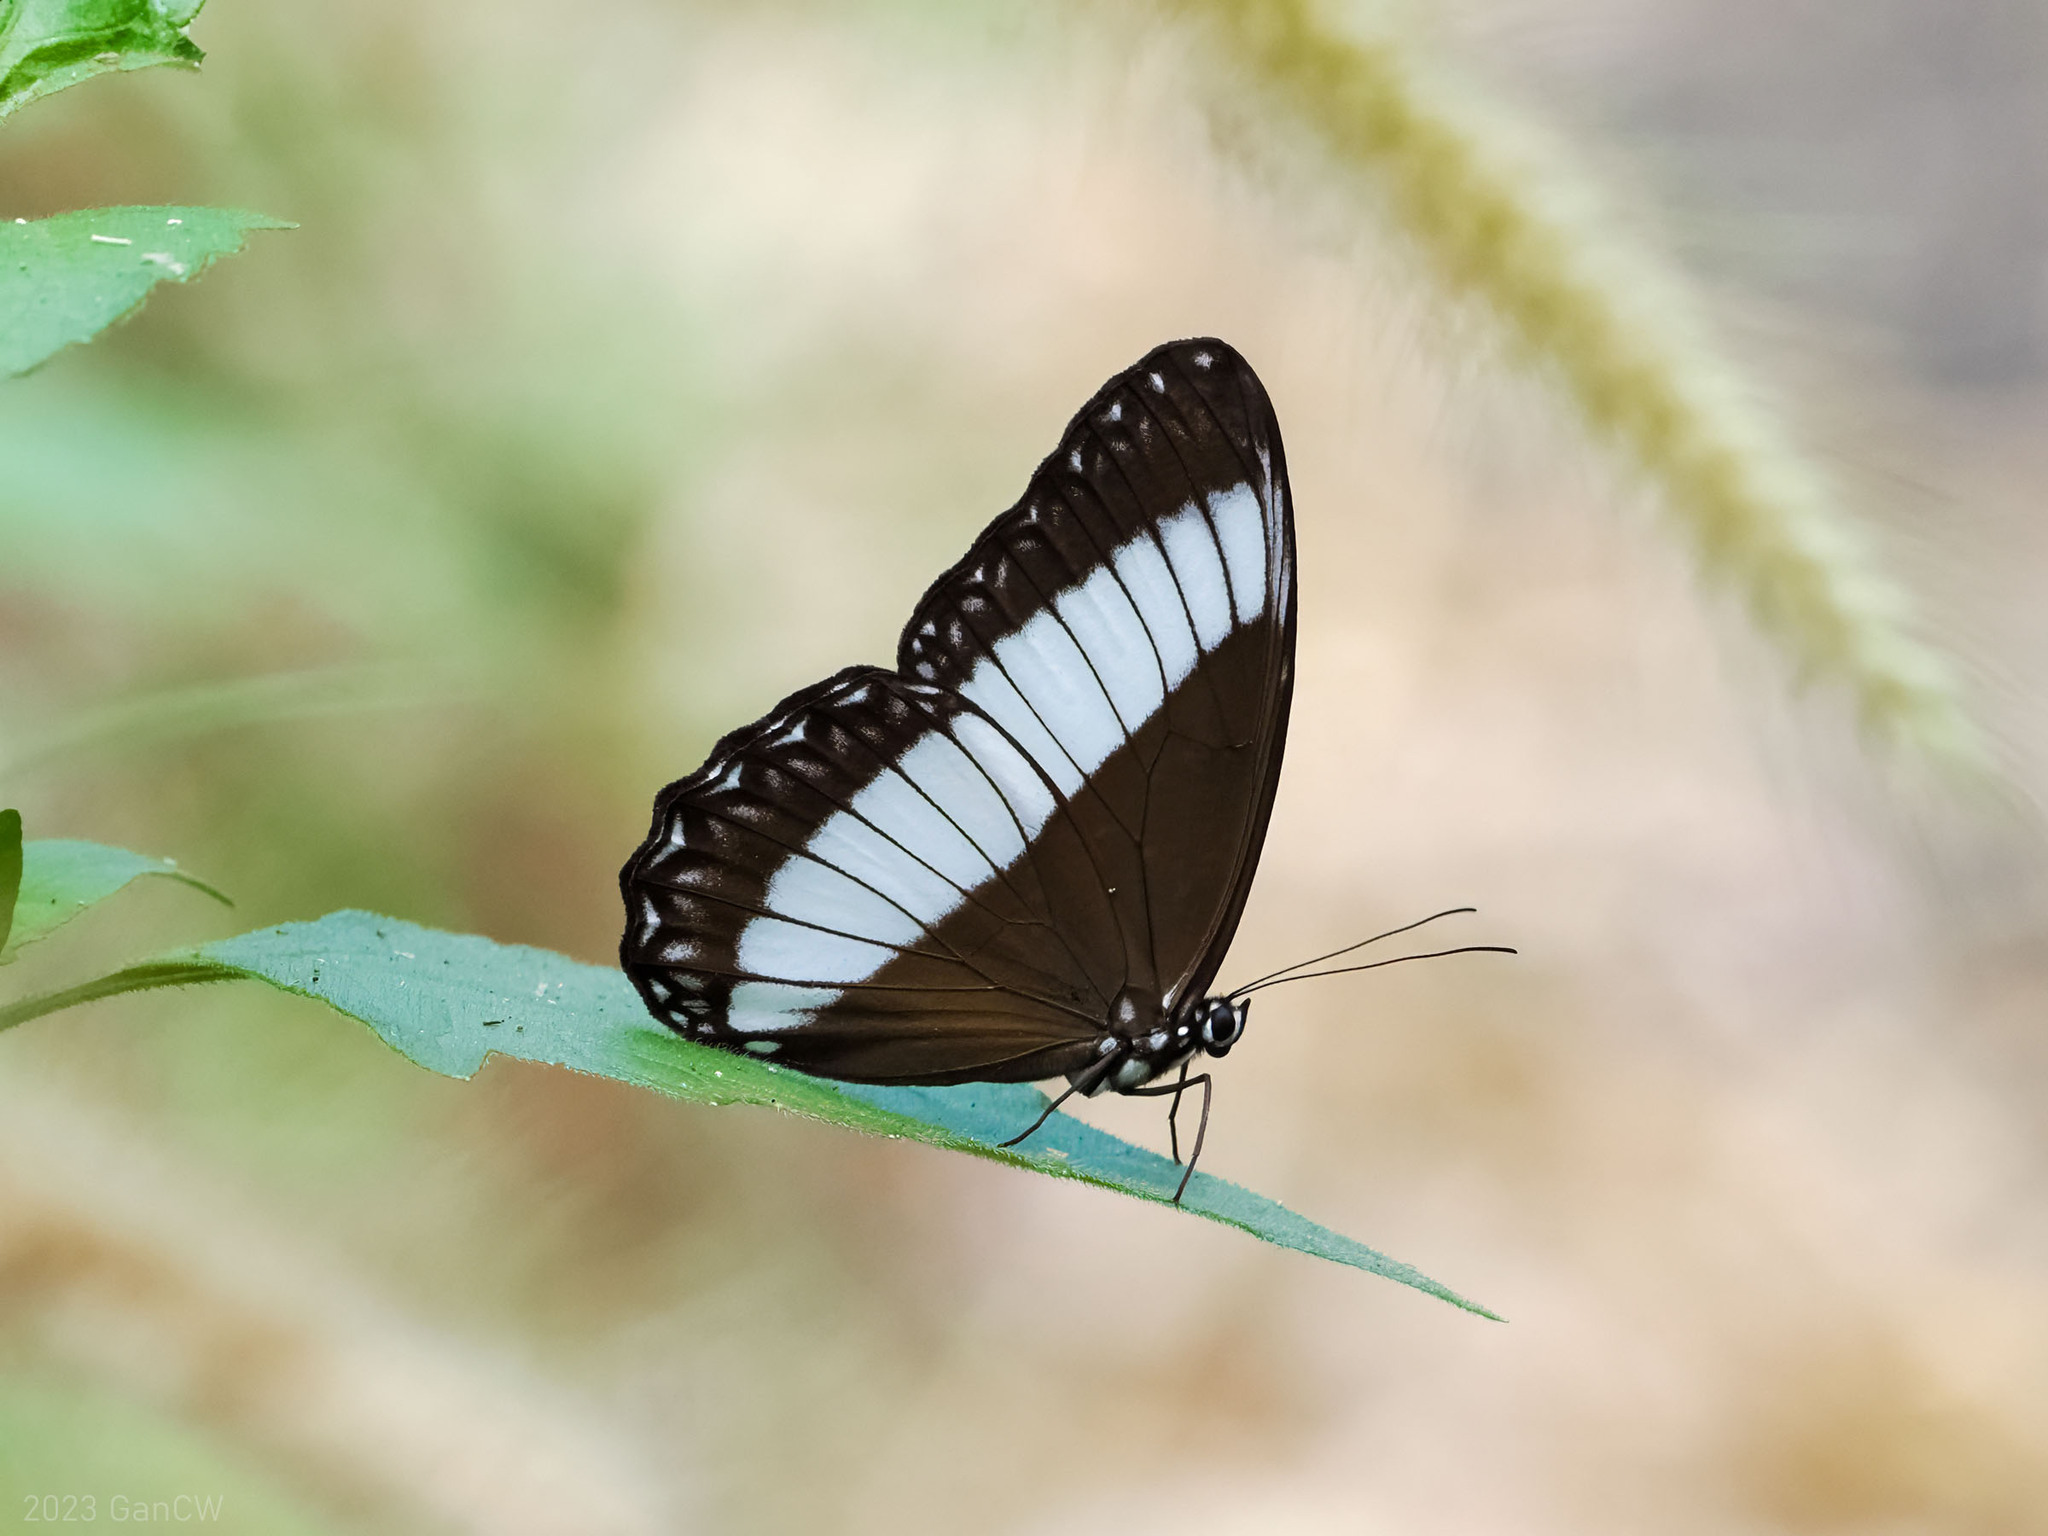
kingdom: Animalia
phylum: Arthropoda
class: Insecta
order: Lepidoptera
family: Nymphalidae
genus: Zethera
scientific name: Zethera pimplea
